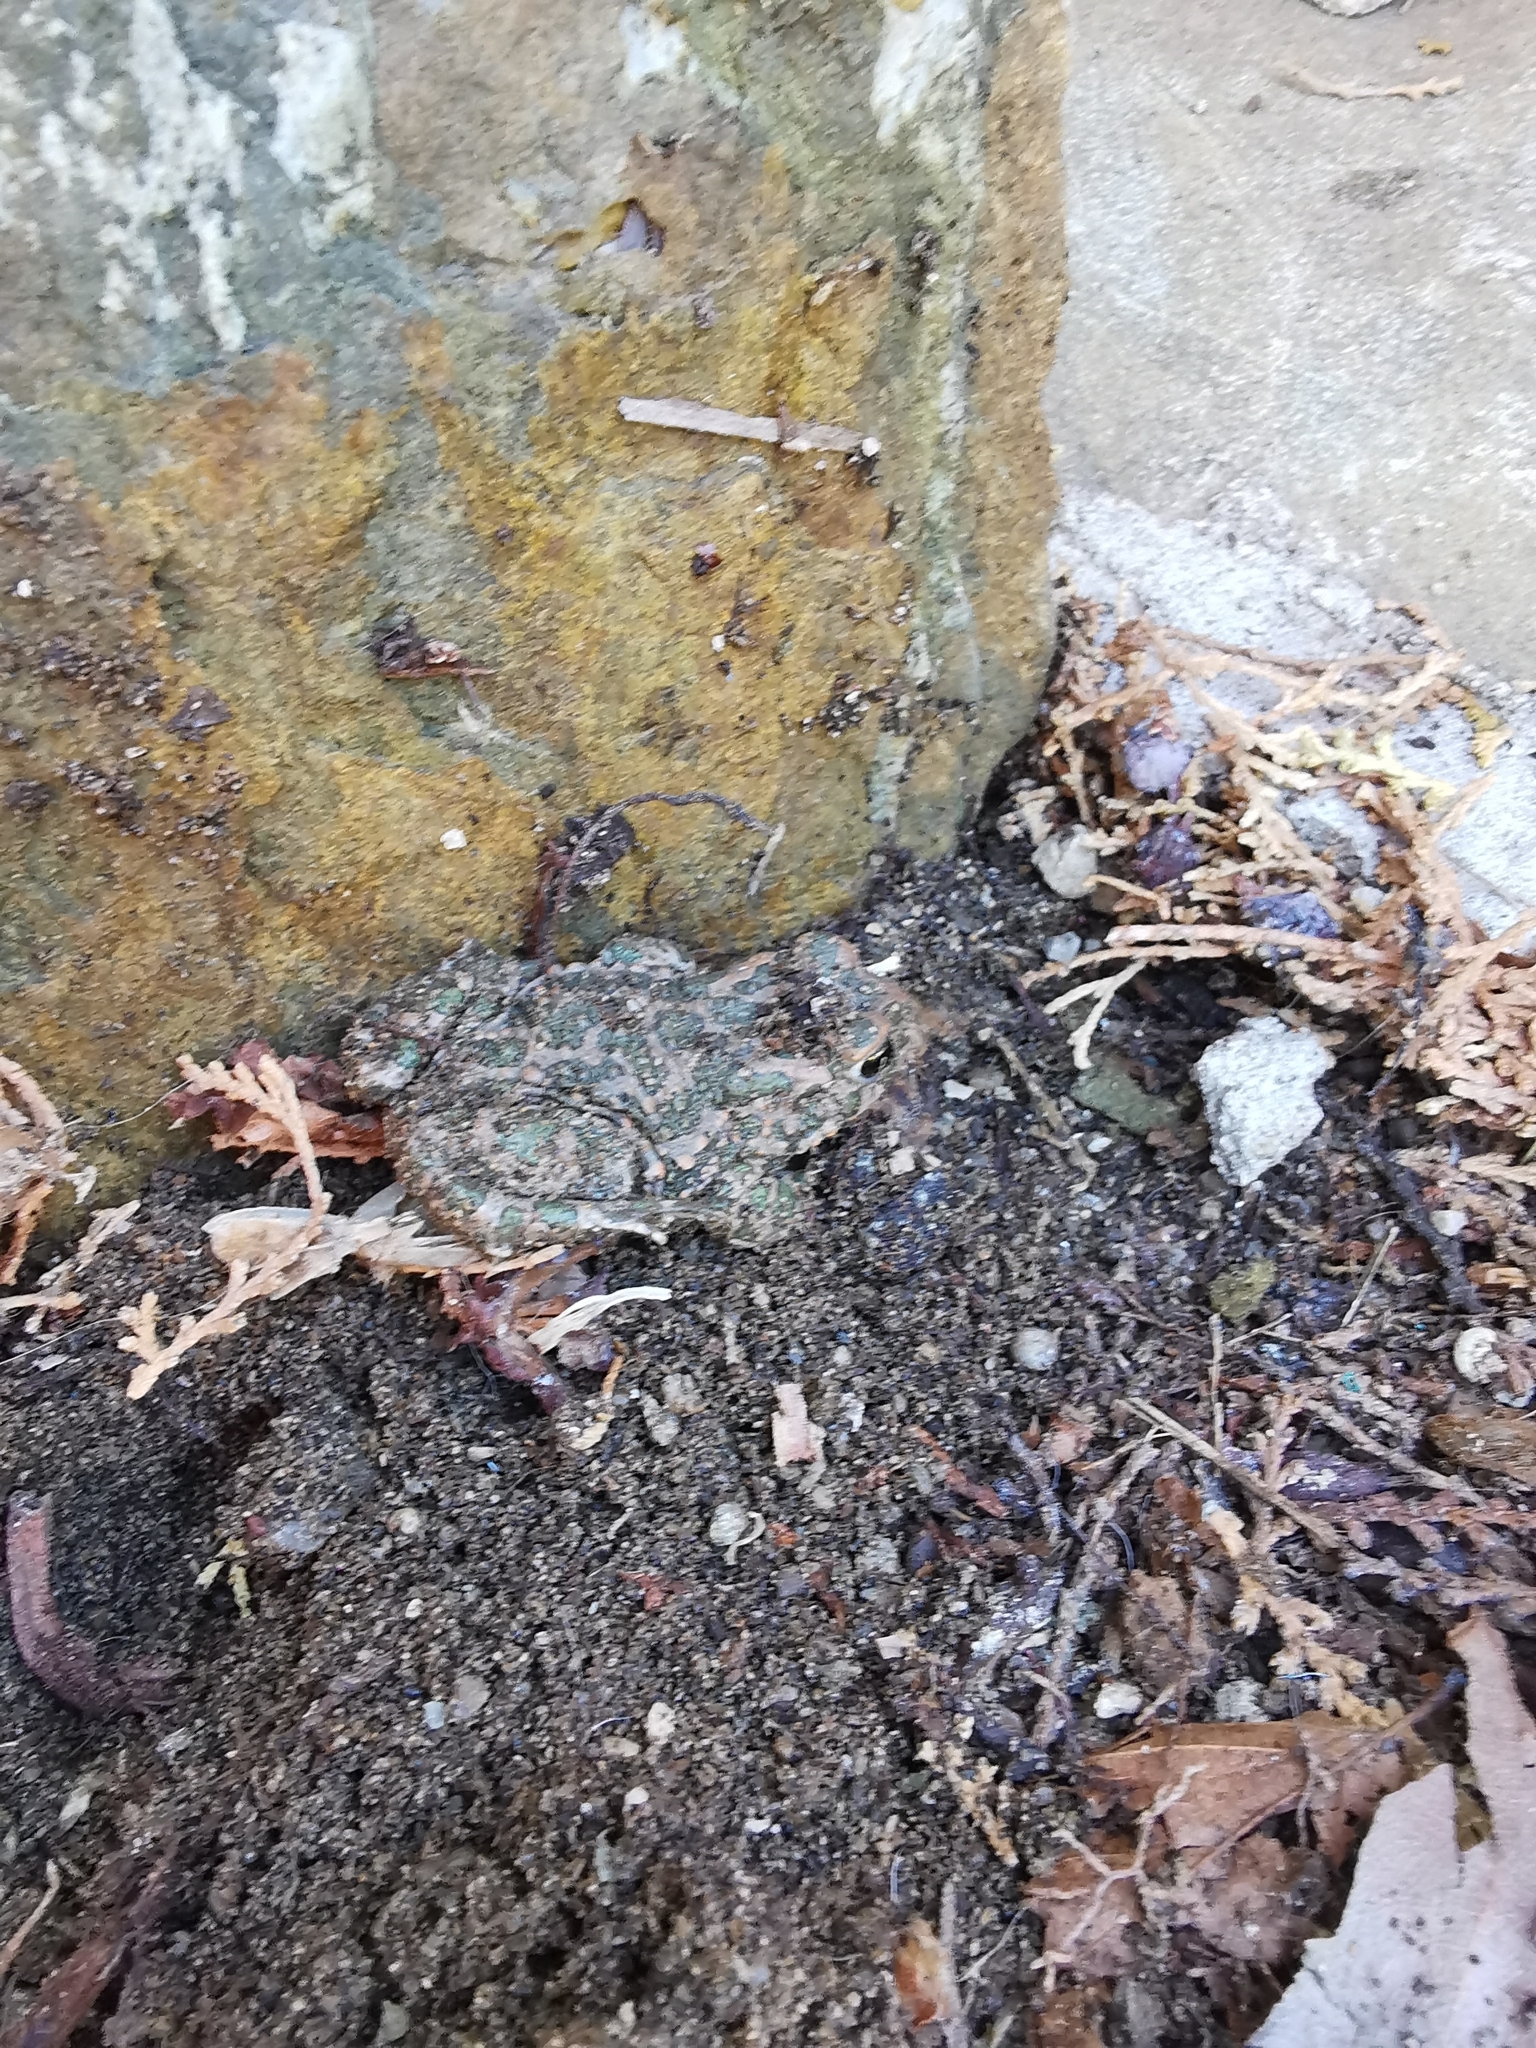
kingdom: Animalia
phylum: Chordata
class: Amphibia
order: Anura
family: Bufonidae
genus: Bufotes
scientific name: Bufotes viridis
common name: European green toad
